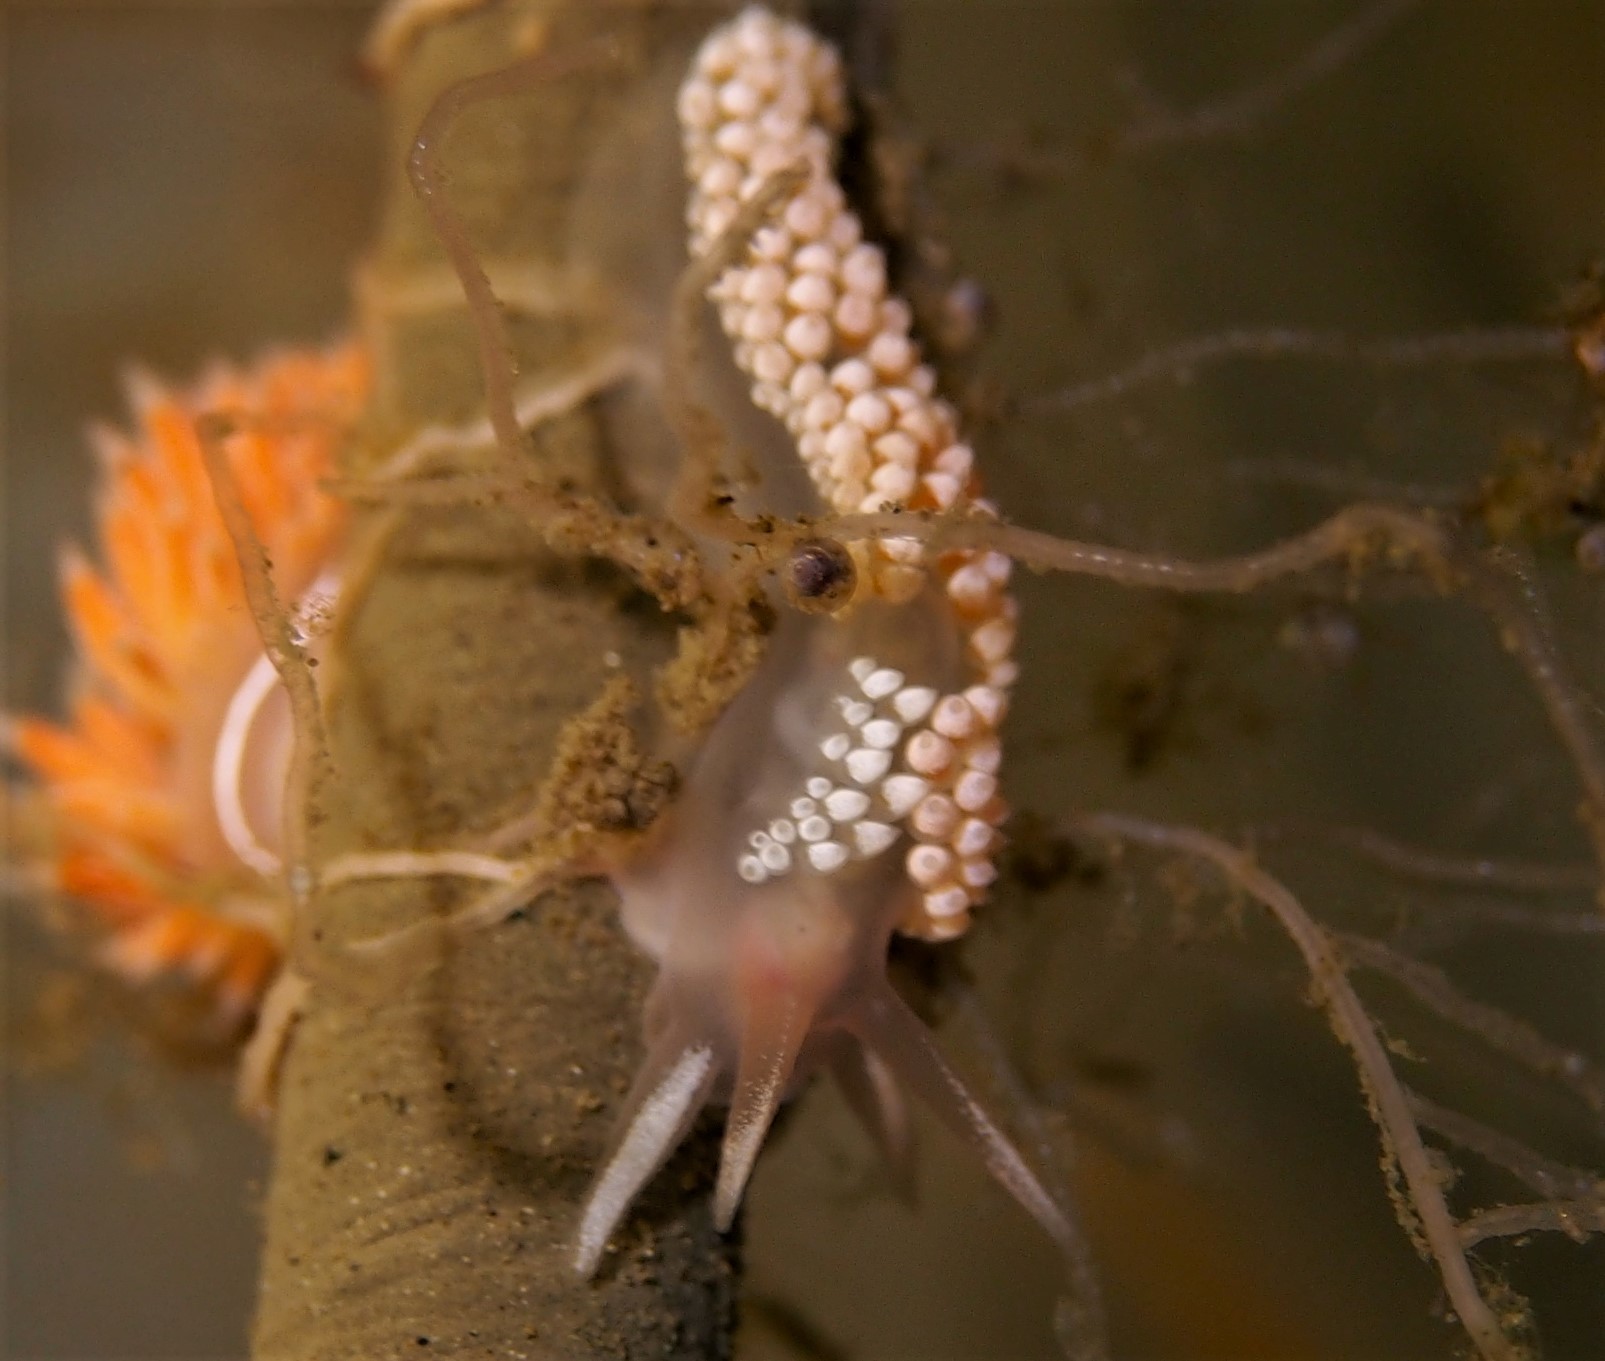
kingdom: Animalia
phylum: Mollusca
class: Gastropoda
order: Nudibranchia
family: Coryphellidae
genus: Coryphella
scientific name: Coryphella verrucosa
